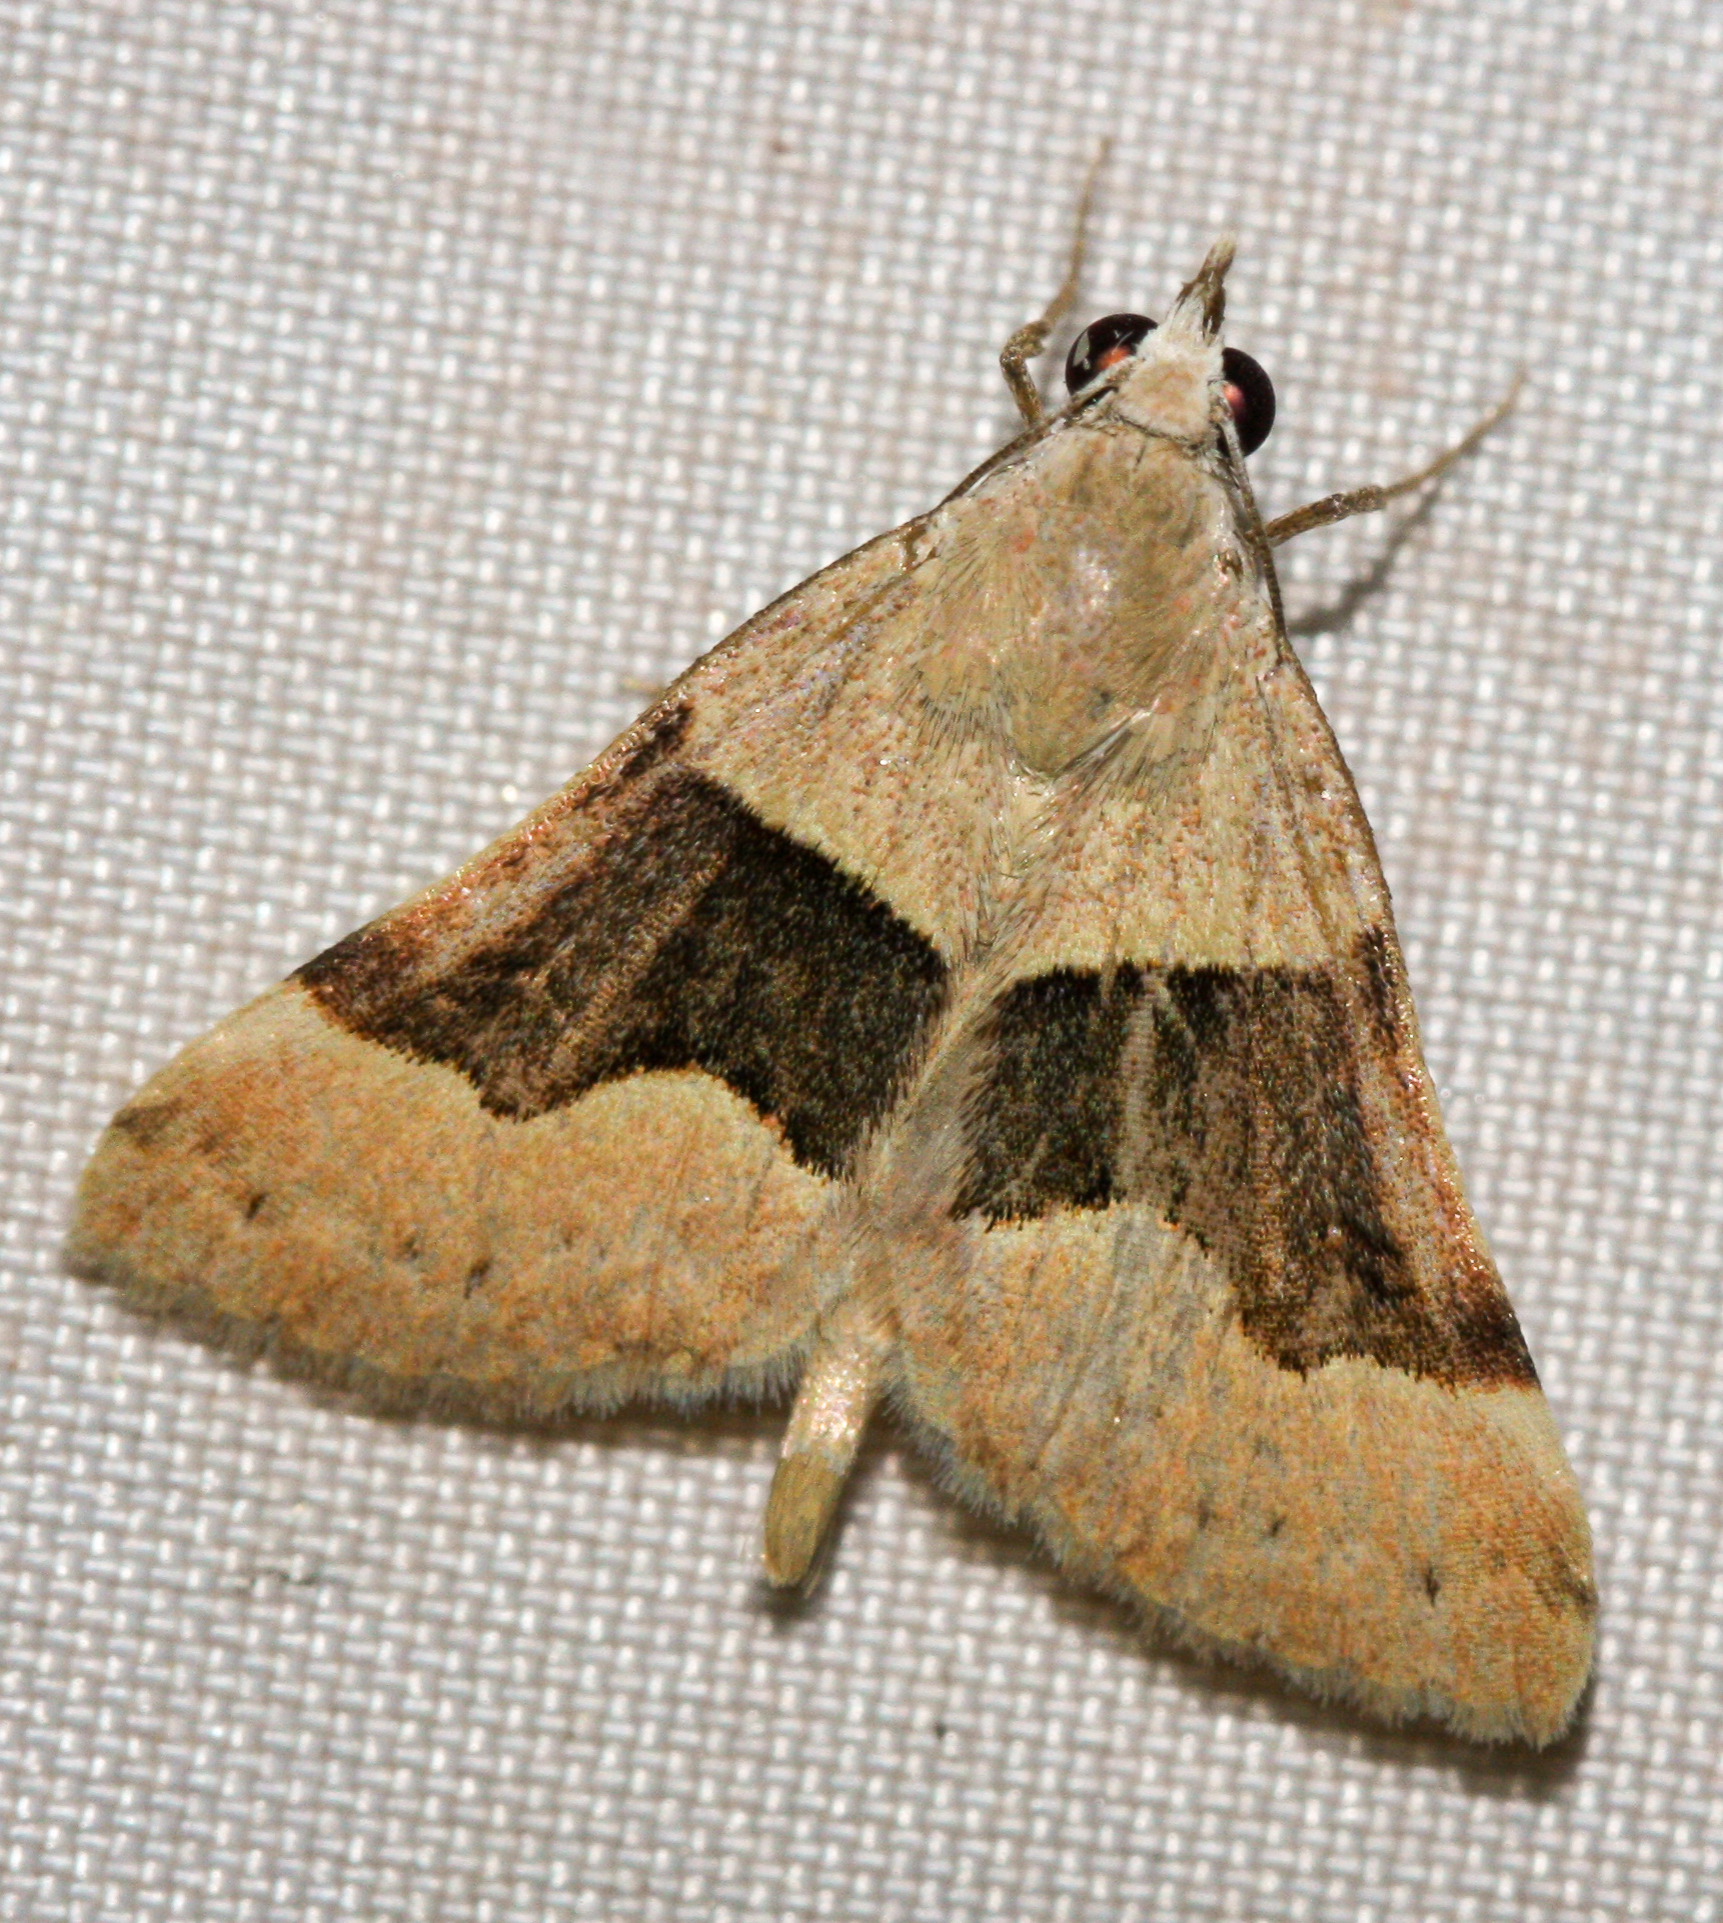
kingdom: Animalia
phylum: Arthropoda
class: Insecta
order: Lepidoptera
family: Erebidae
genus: Hemeroplanis
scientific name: Hemeroplanis incusalis
